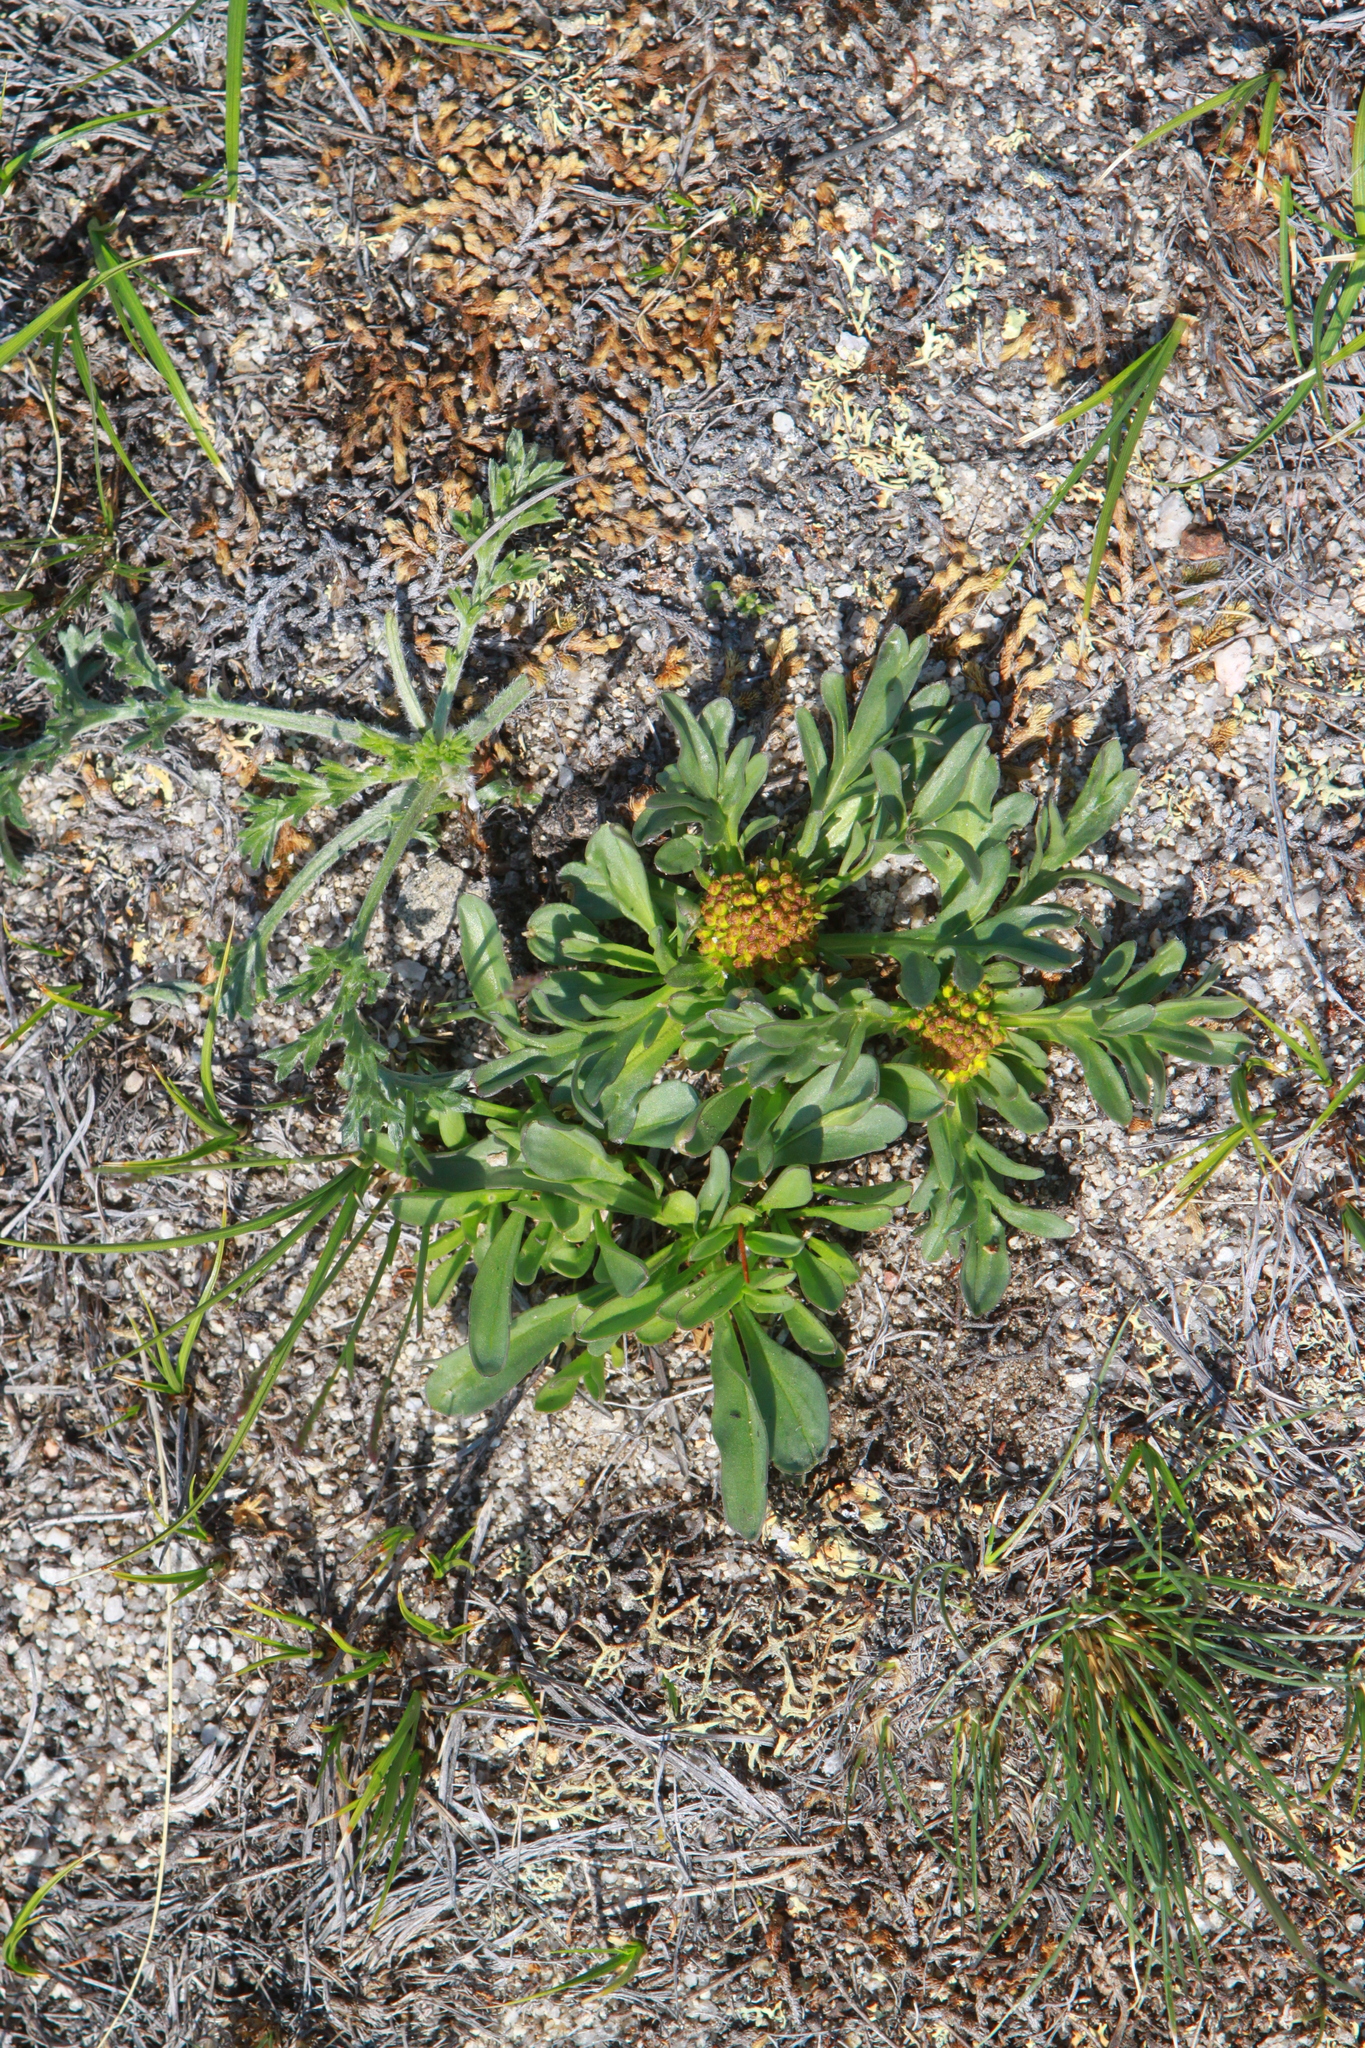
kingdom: Plantae
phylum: Tracheophyta
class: Magnoliopsida
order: Dipsacales
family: Caprifoliaceae
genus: Patrinia
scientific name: Patrinia sibirica
